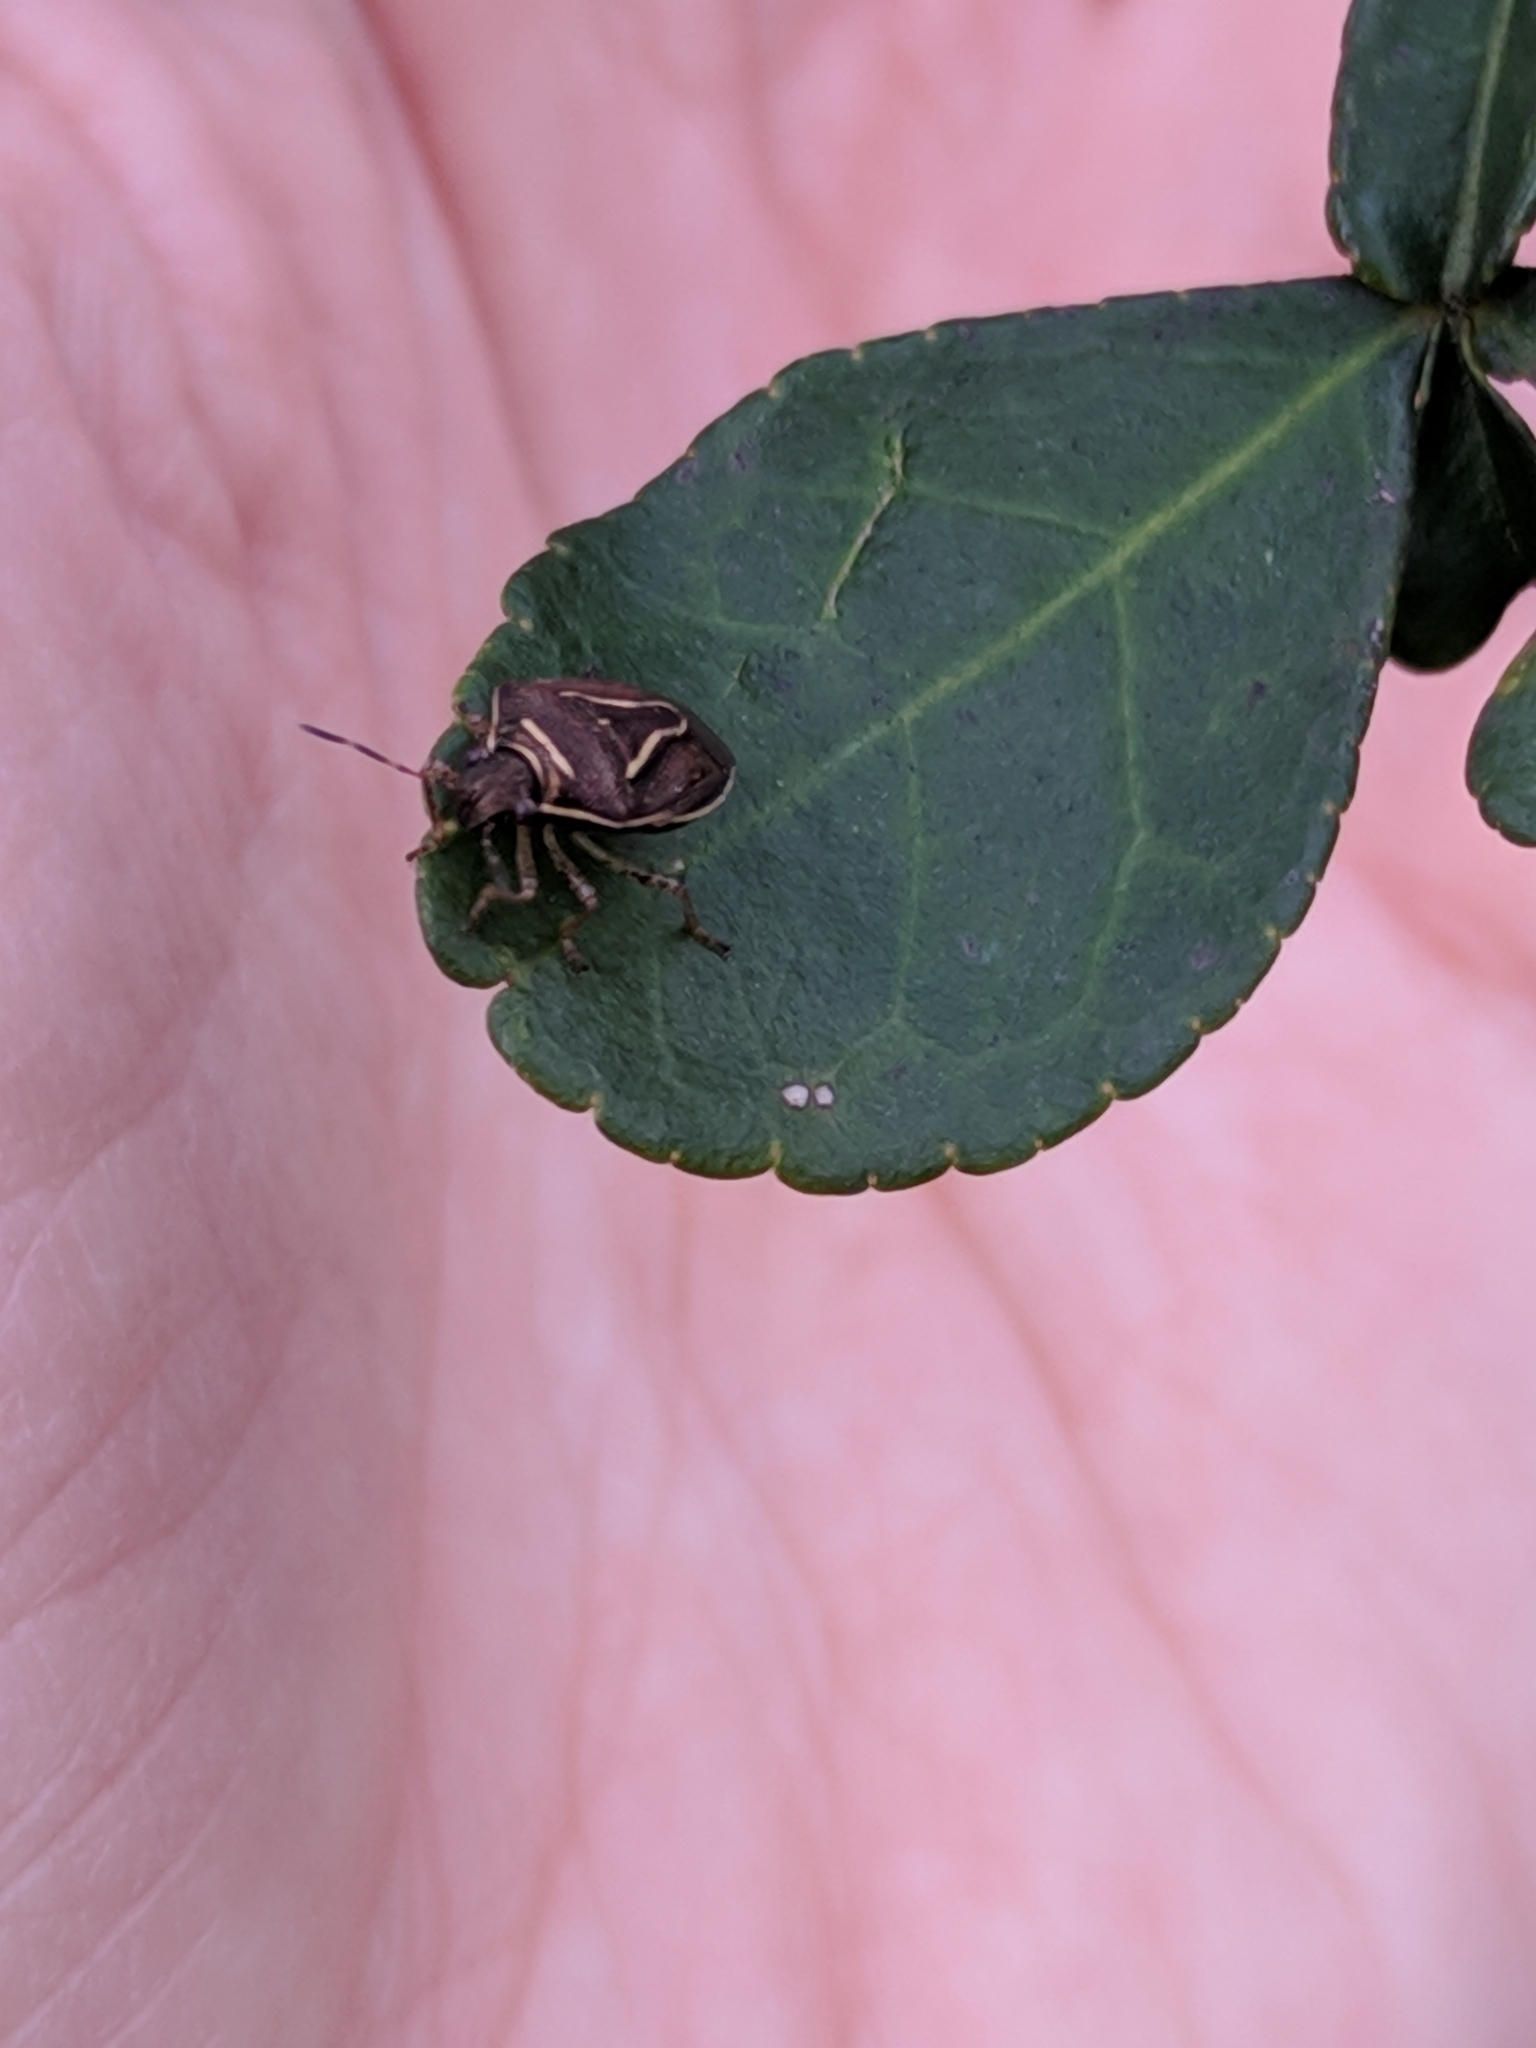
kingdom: Animalia
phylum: Arthropoda
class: Insecta
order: Hemiptera
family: Pentatomidae
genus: Mormidea
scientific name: Mormidea lugens
